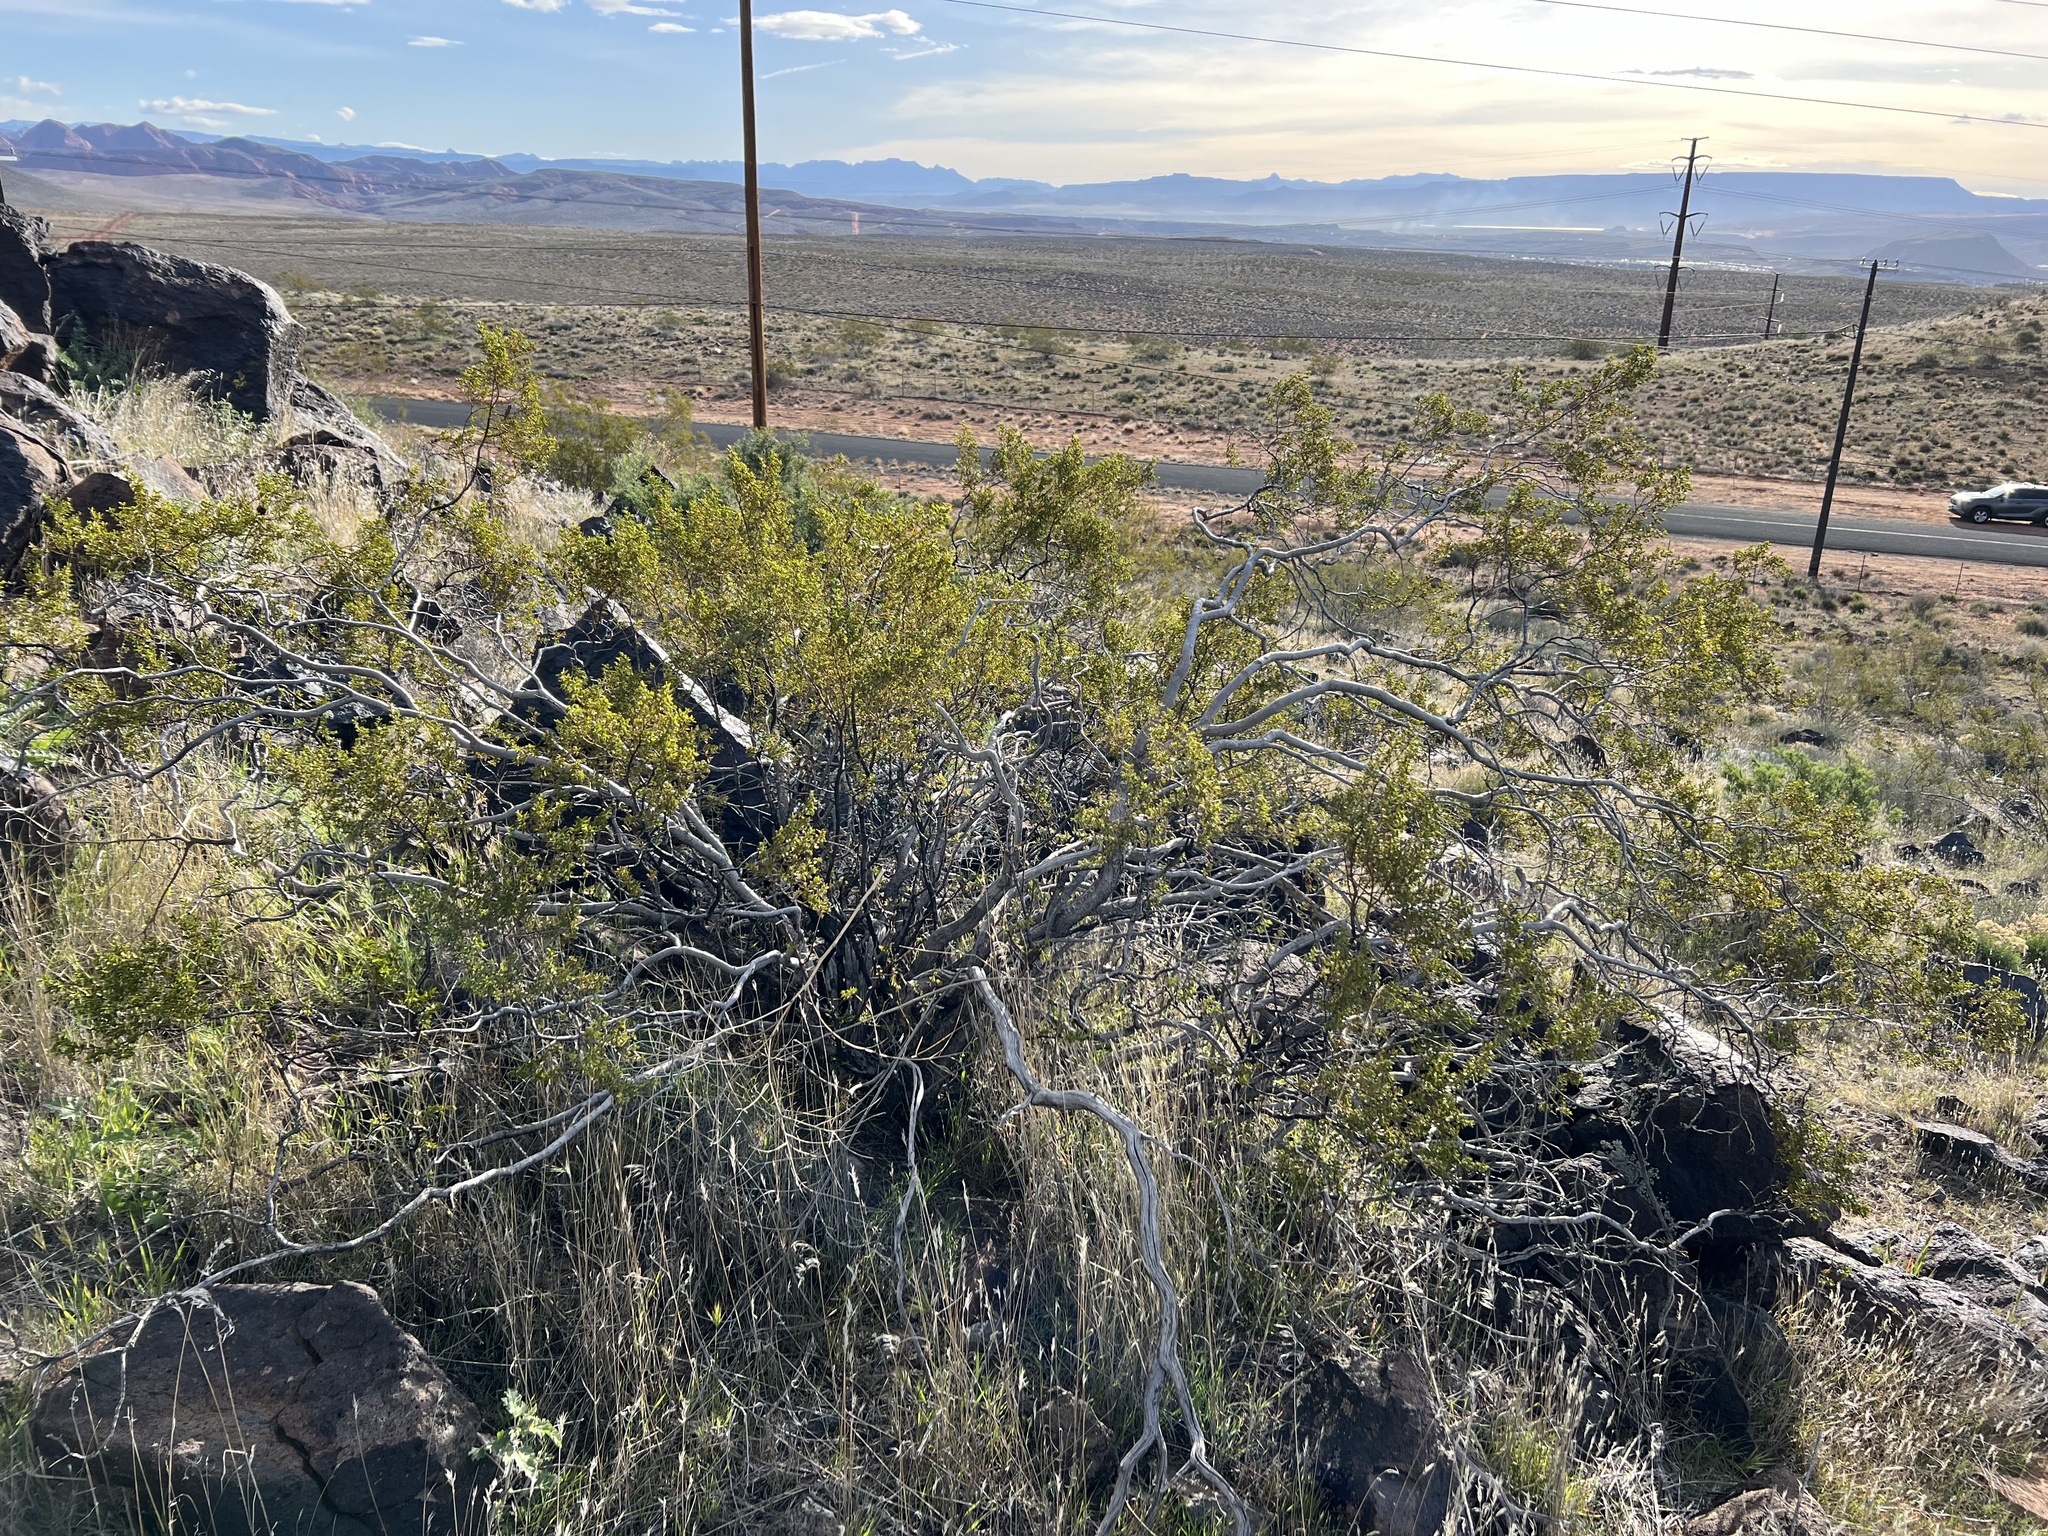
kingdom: Plantae
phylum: Tracheophyta
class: Magnoliopsida
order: Zygophyllales
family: Zygophyllaceae
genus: Larrea
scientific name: Larrea tridentata
